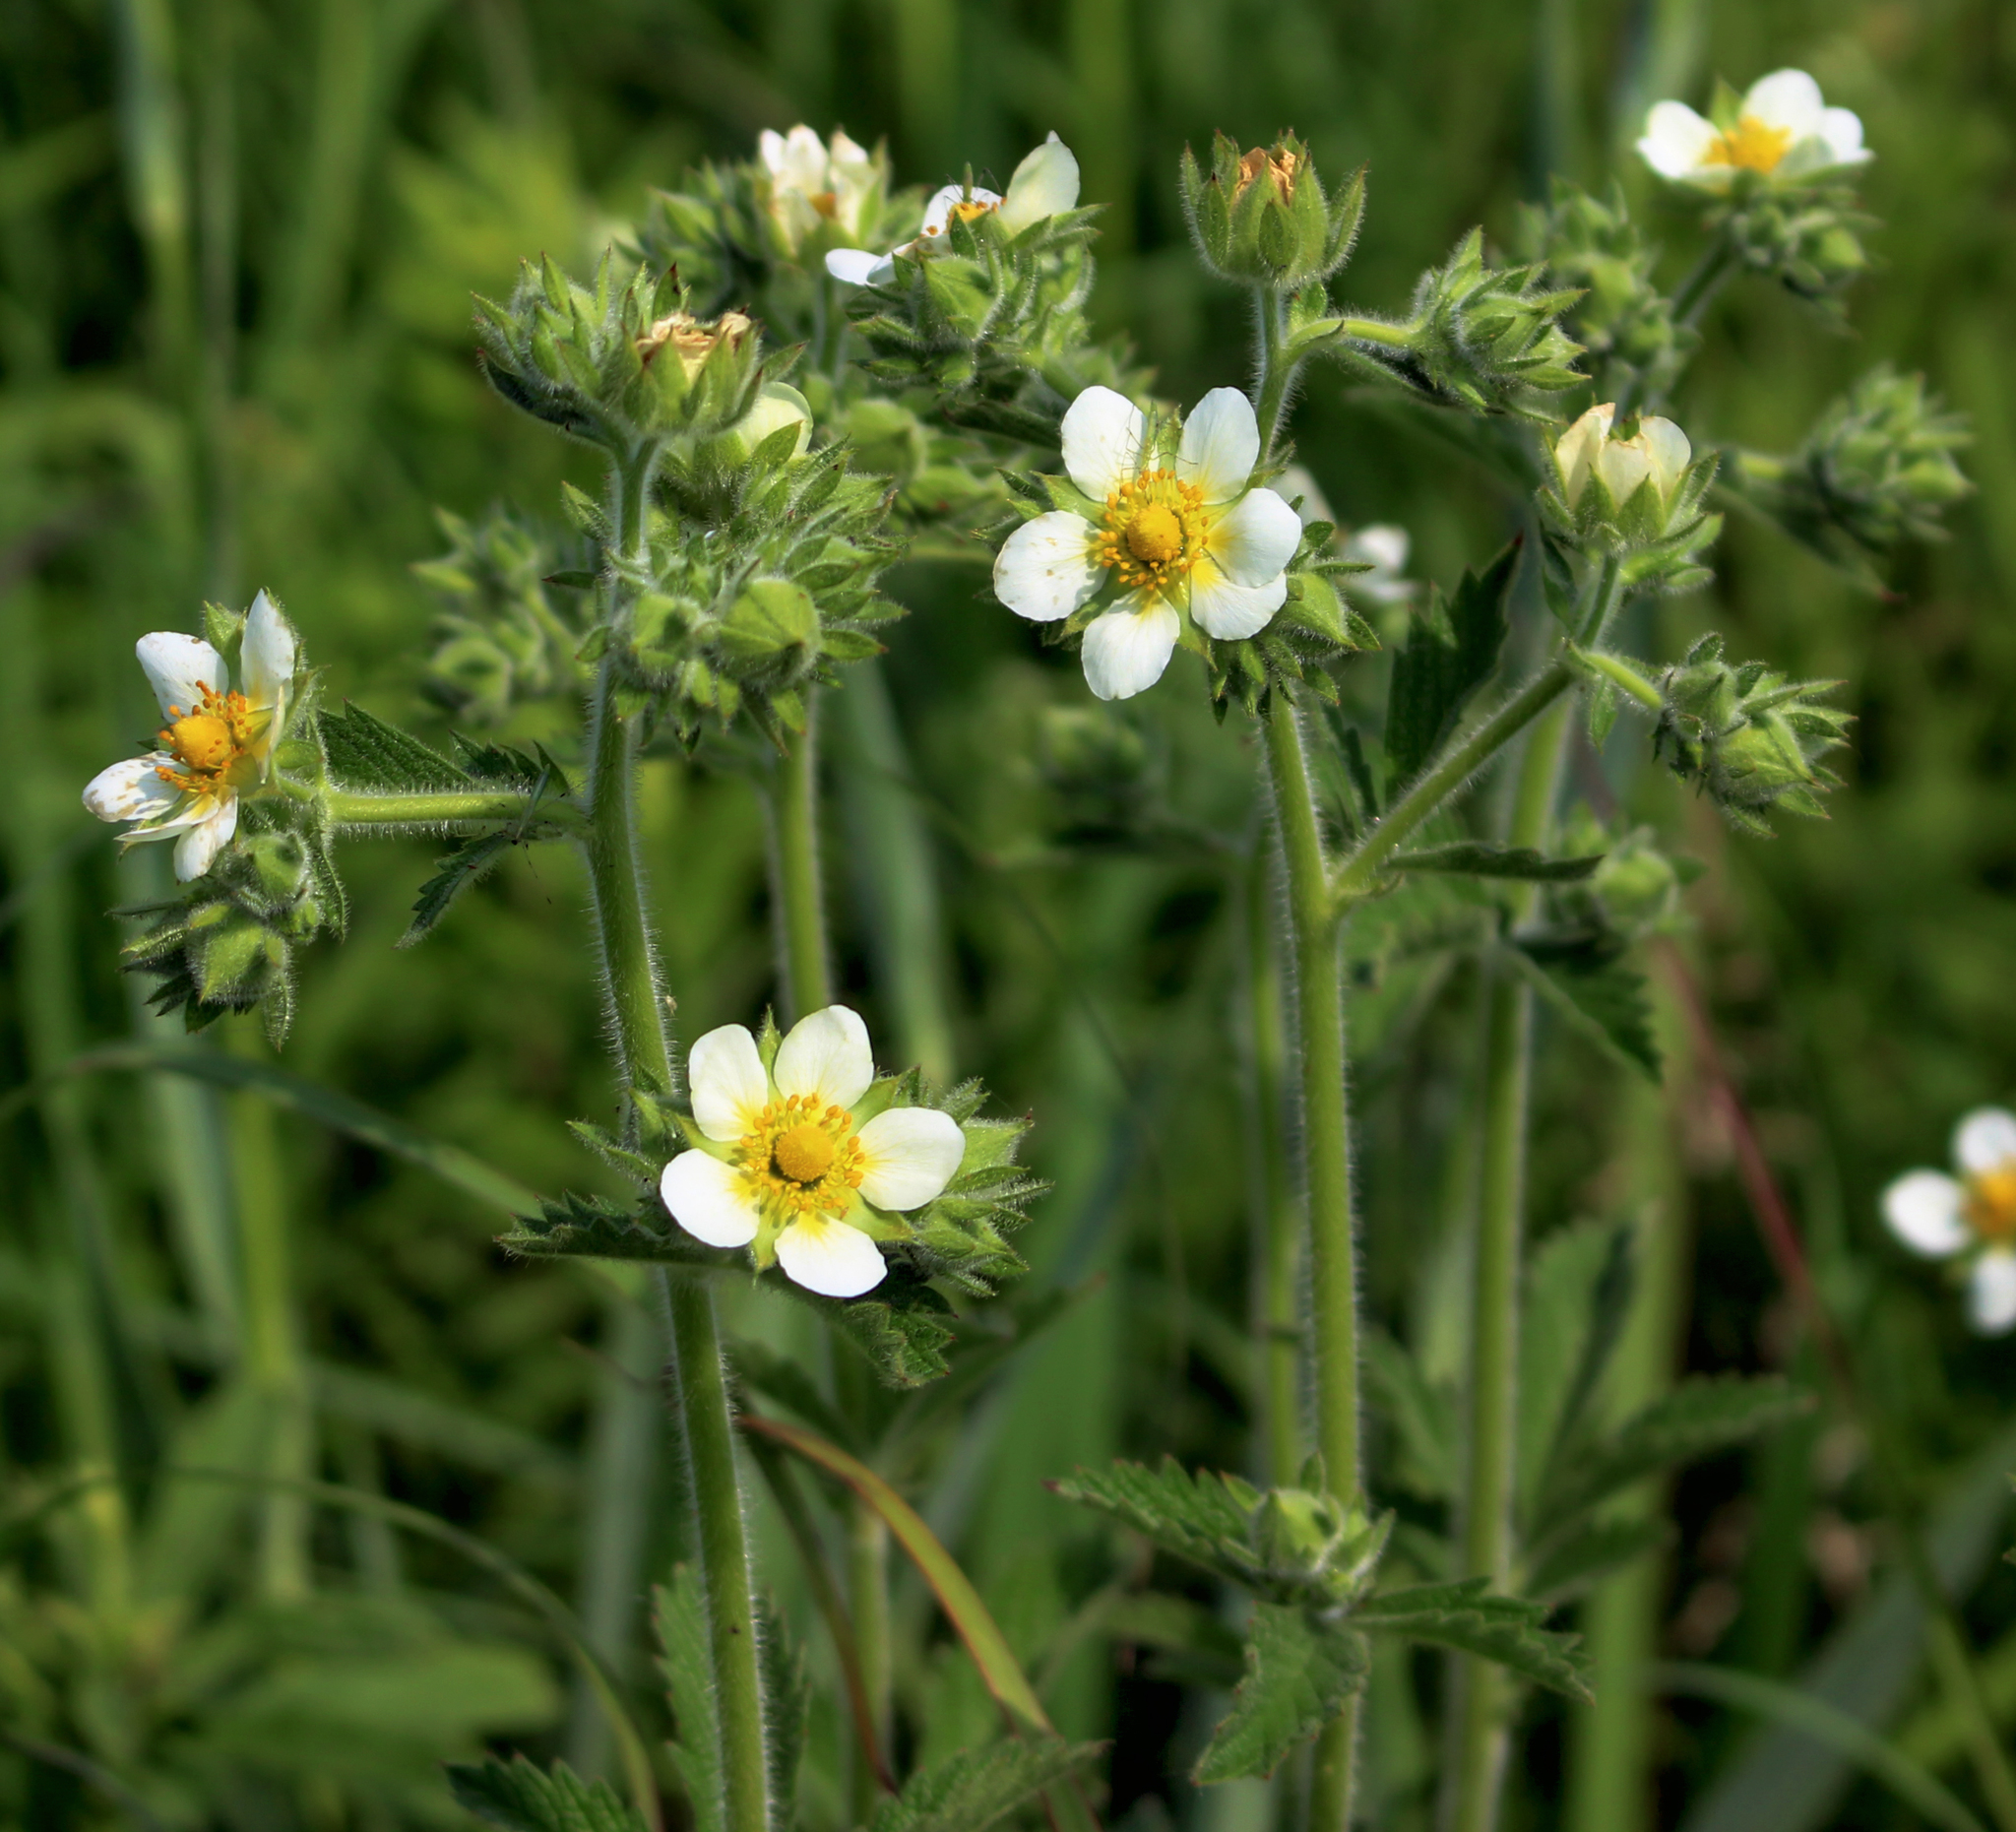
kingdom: Plantae
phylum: Tracheophyta
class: Magnoliopsida
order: Rosales
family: Rosaceae
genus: Drymocallis
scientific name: Drymocallis arguta
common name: Tall cinquefoil
